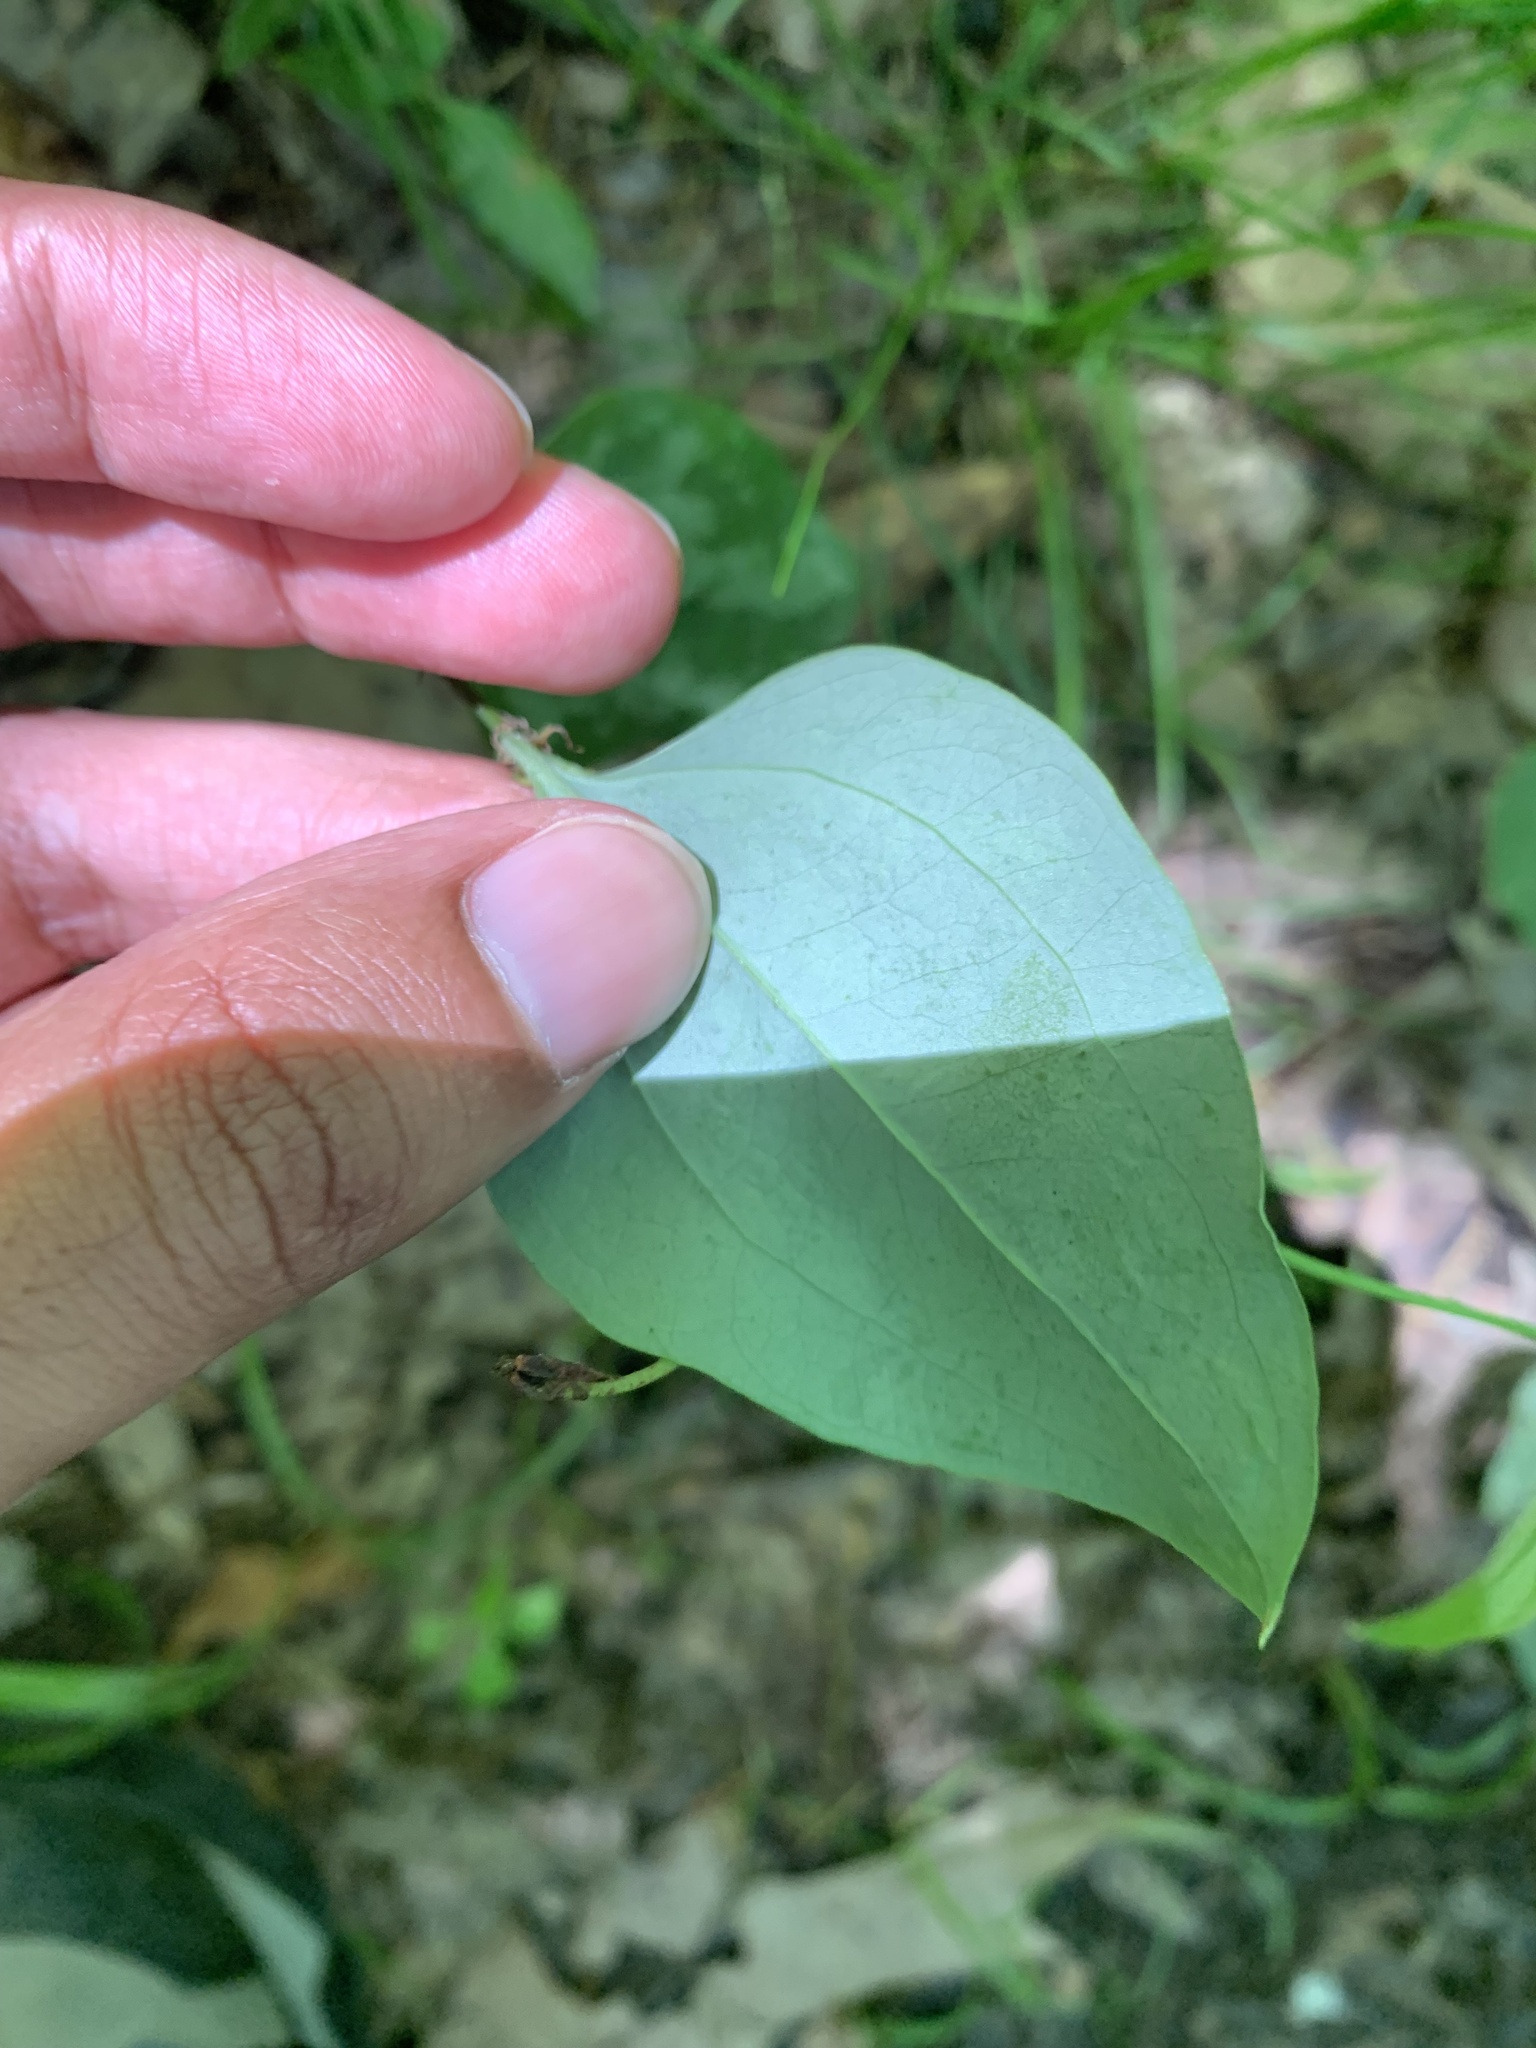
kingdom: Plantae
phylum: Tracheophyta
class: Liliopsida
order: Liliales
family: Smilacaceae
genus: Smilax
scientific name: Smilax glauca
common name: Cat greenbrier
